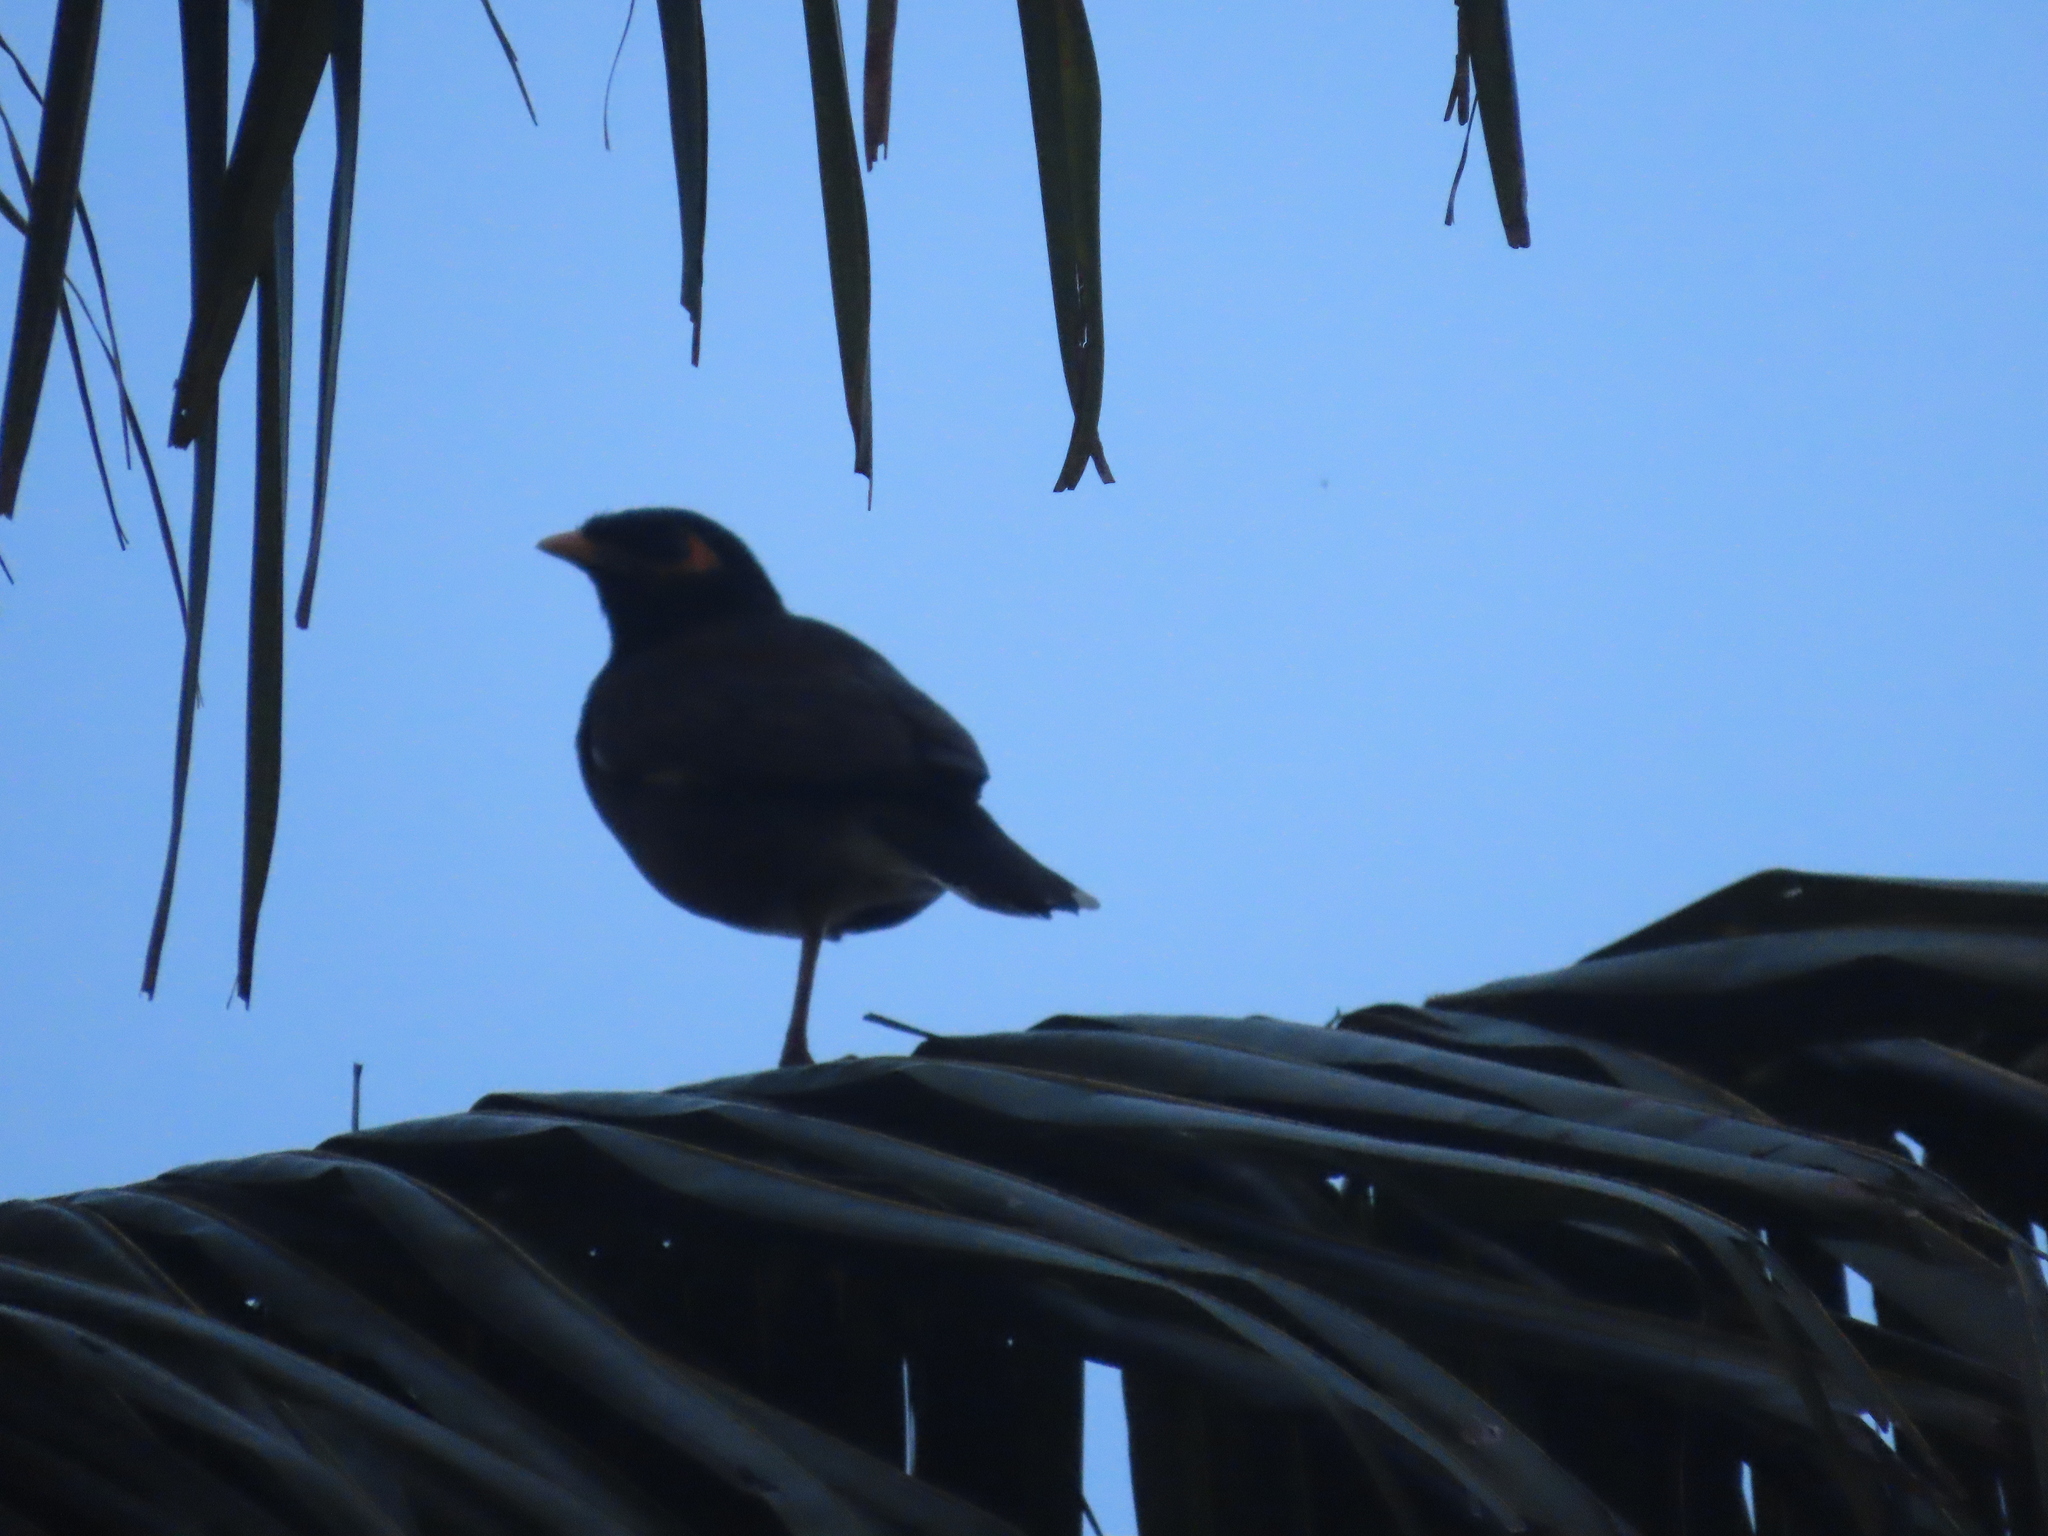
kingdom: Animalia
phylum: Chordata
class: Aves
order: Passeriformes
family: Sturnidae
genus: Acridotheres
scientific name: Acridotheres tristis
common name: Common myna
